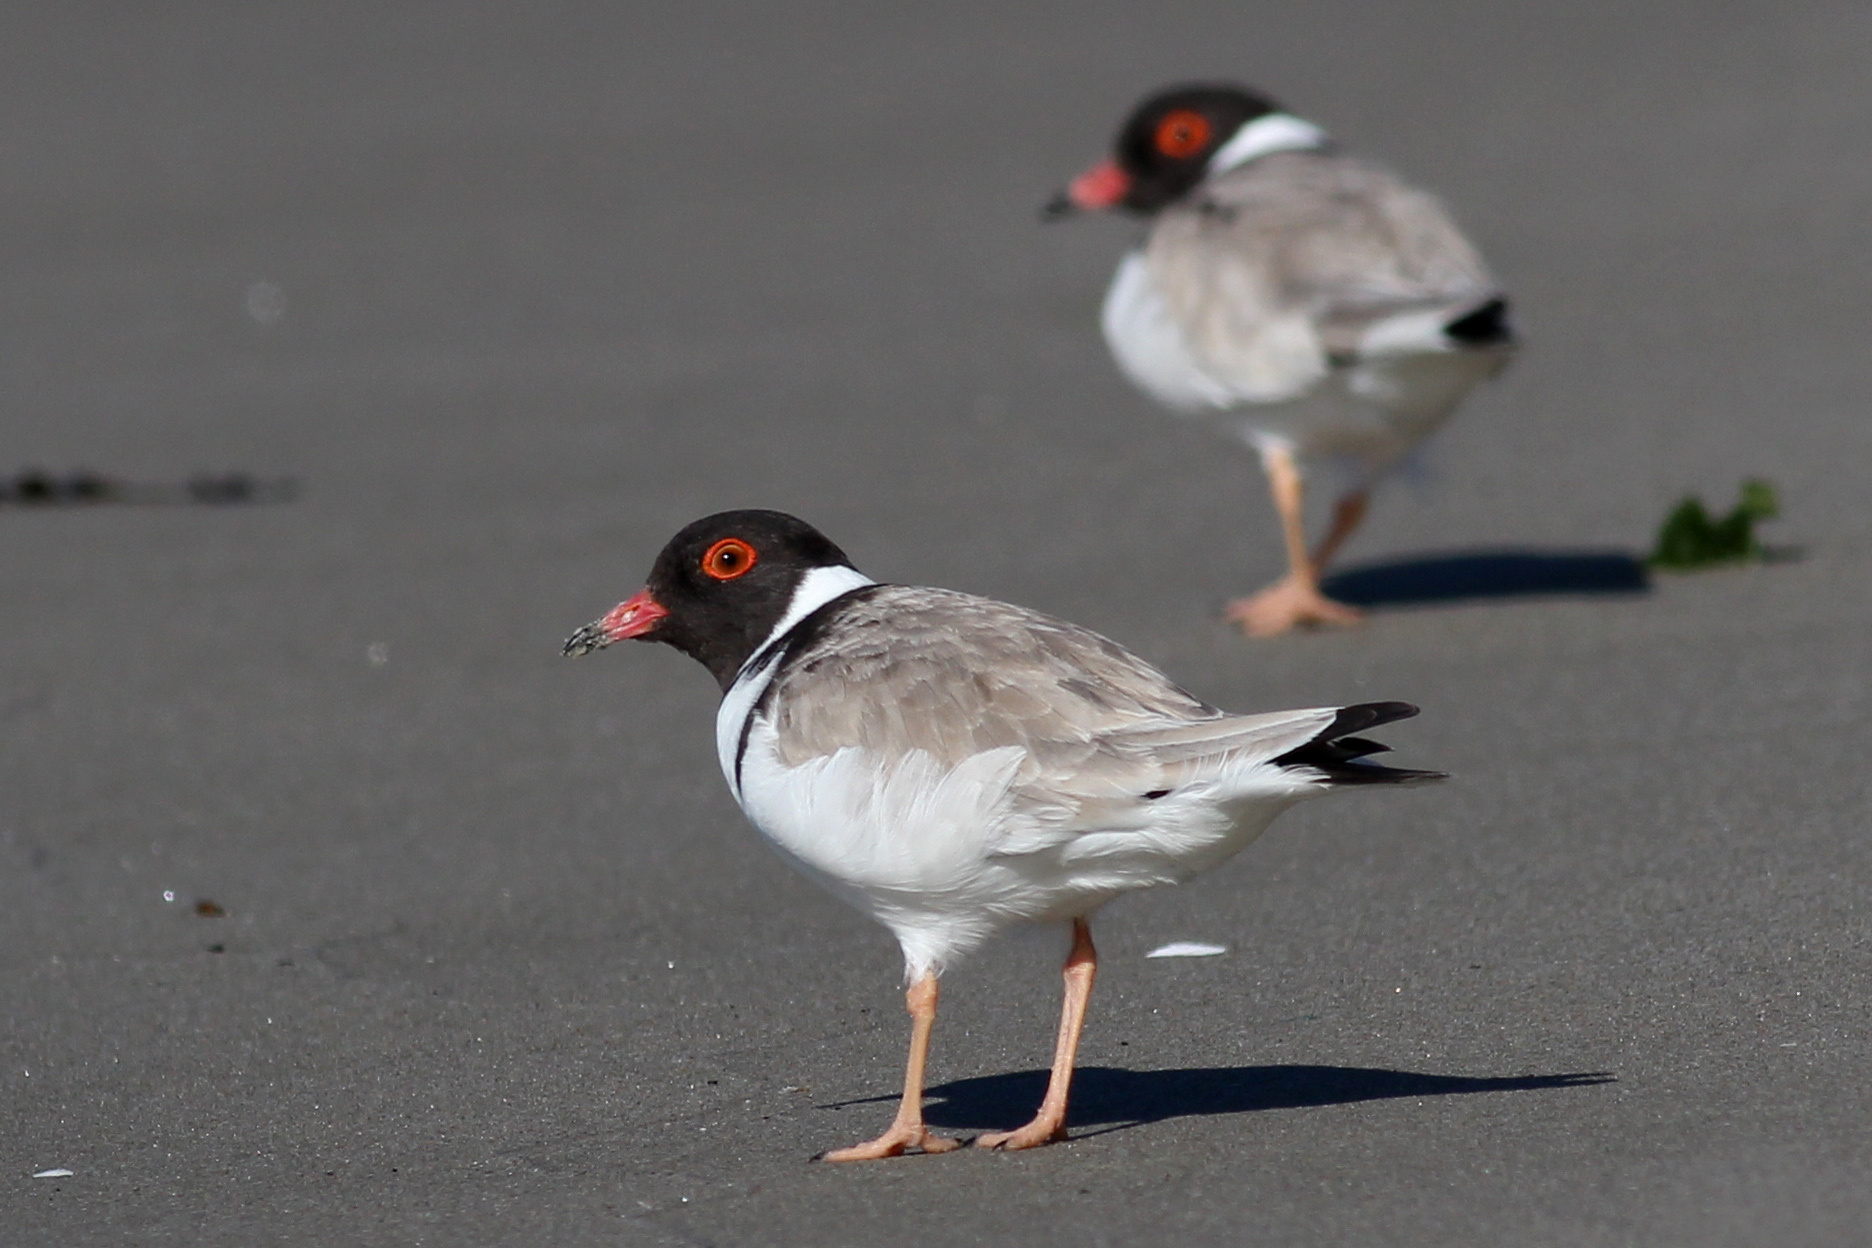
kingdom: Animalia
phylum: Chordata
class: Aves
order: Charadriiformes
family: Charadriidae
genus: Thinornis
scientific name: Thinornis cucullatus
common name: Hooded dotterel
